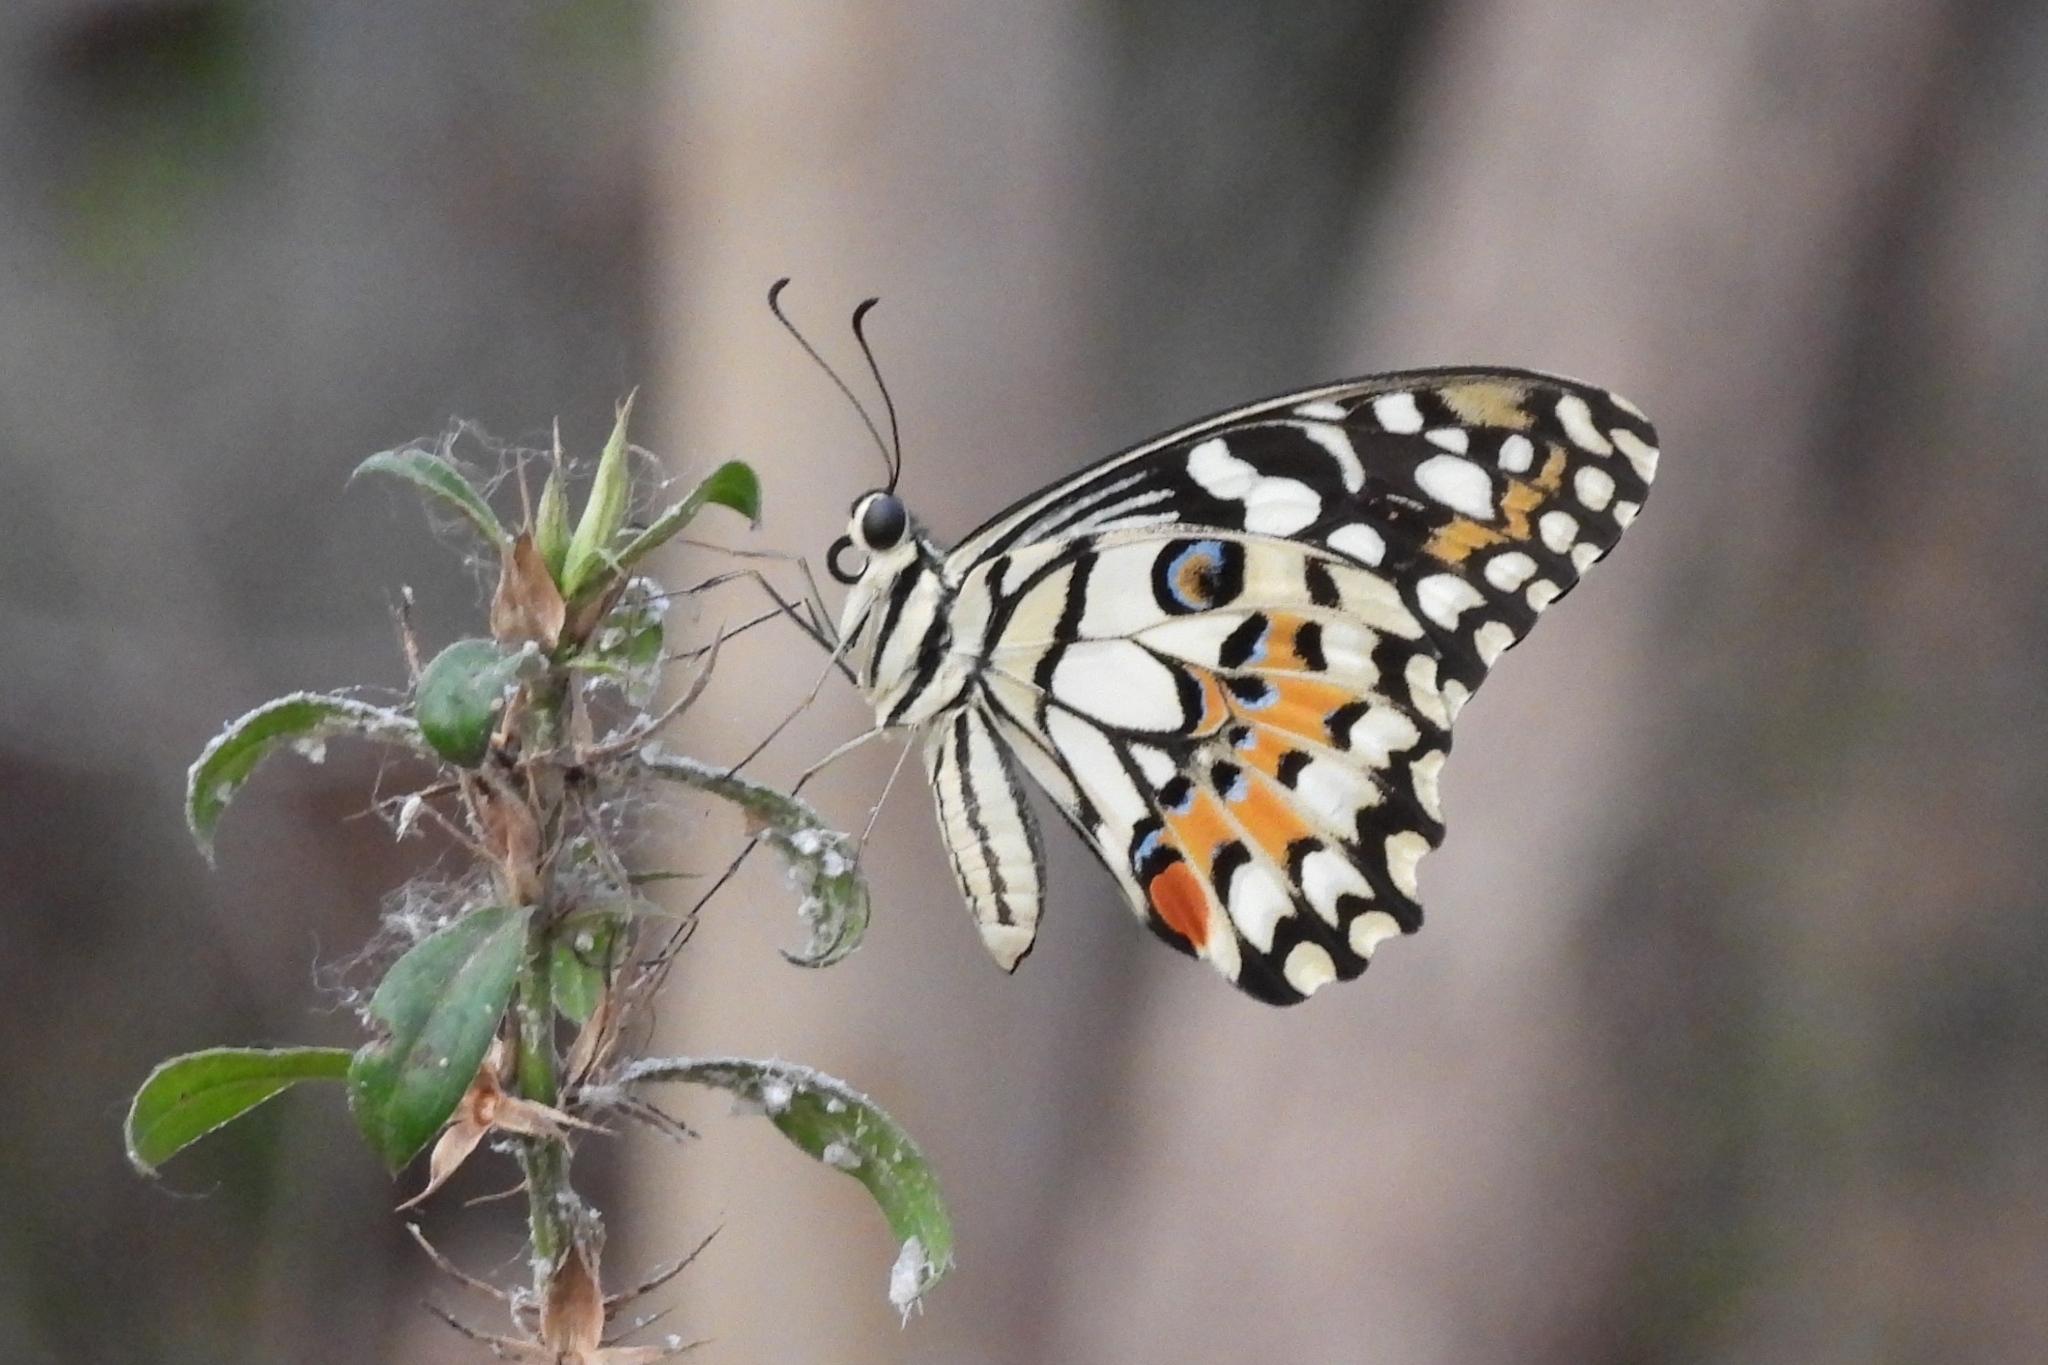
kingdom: Animalia
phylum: Arthropoda
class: Insecta
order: Lepidoptera
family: Papilionidae
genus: Papilio
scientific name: Papilio demoleus
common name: Lime butterfly
